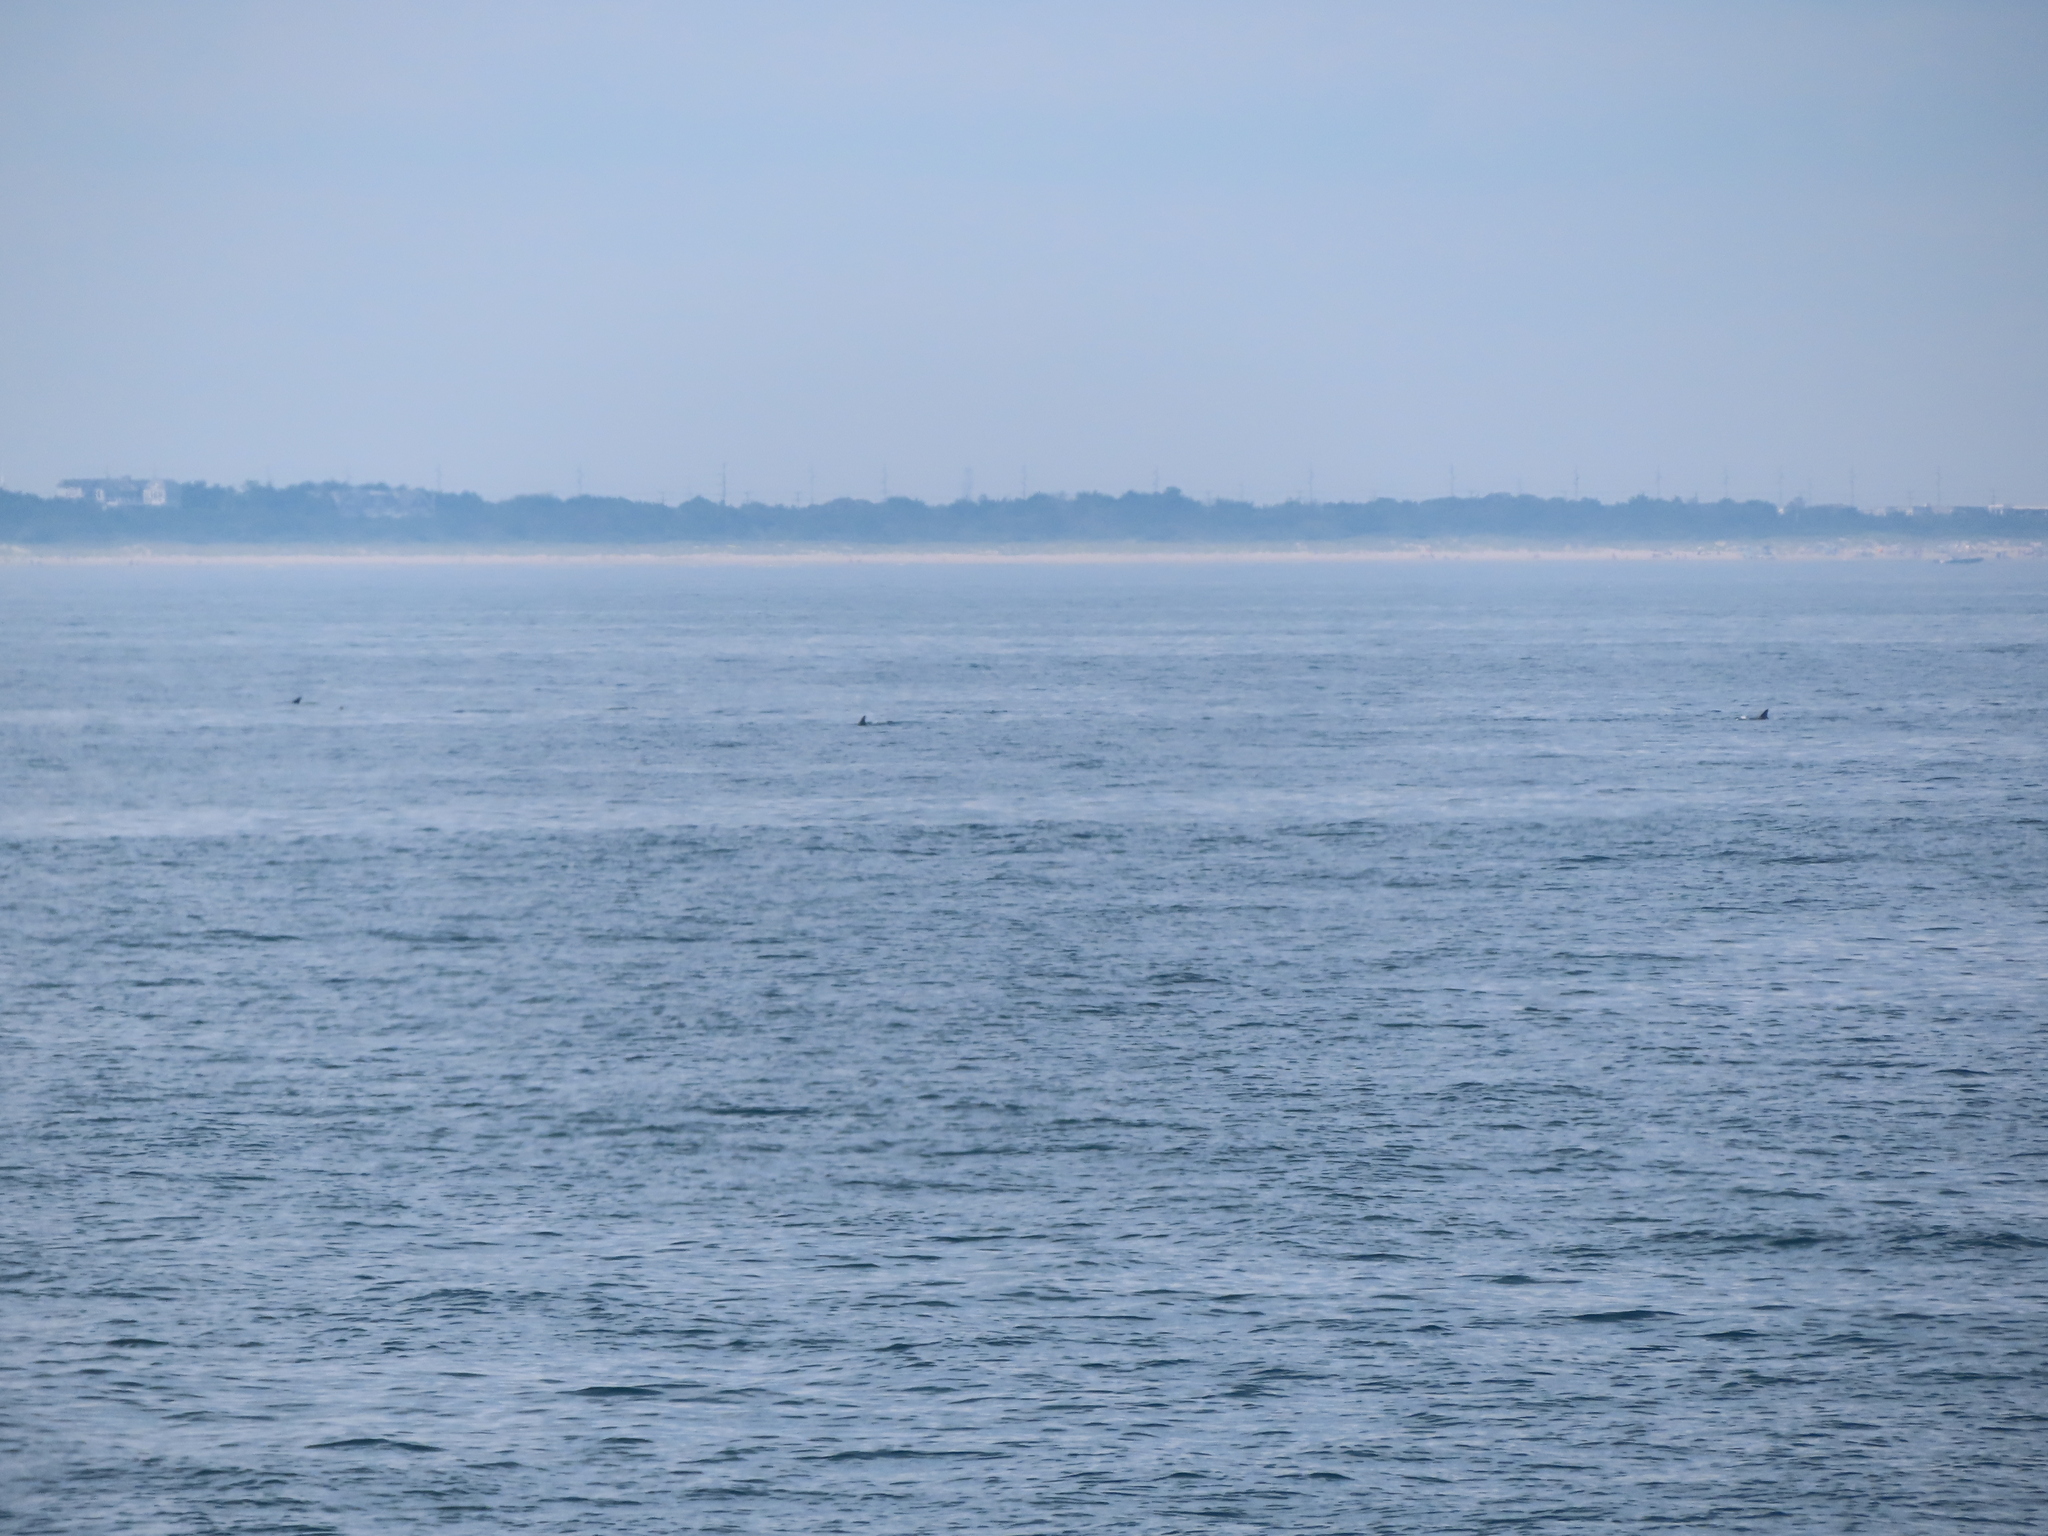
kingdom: Animalia
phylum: Chordata
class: Mammalia
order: Cetacea
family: Delphinidae
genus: Tursiops
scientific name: Tursiops truncatus
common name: Bottlenose dolphin
